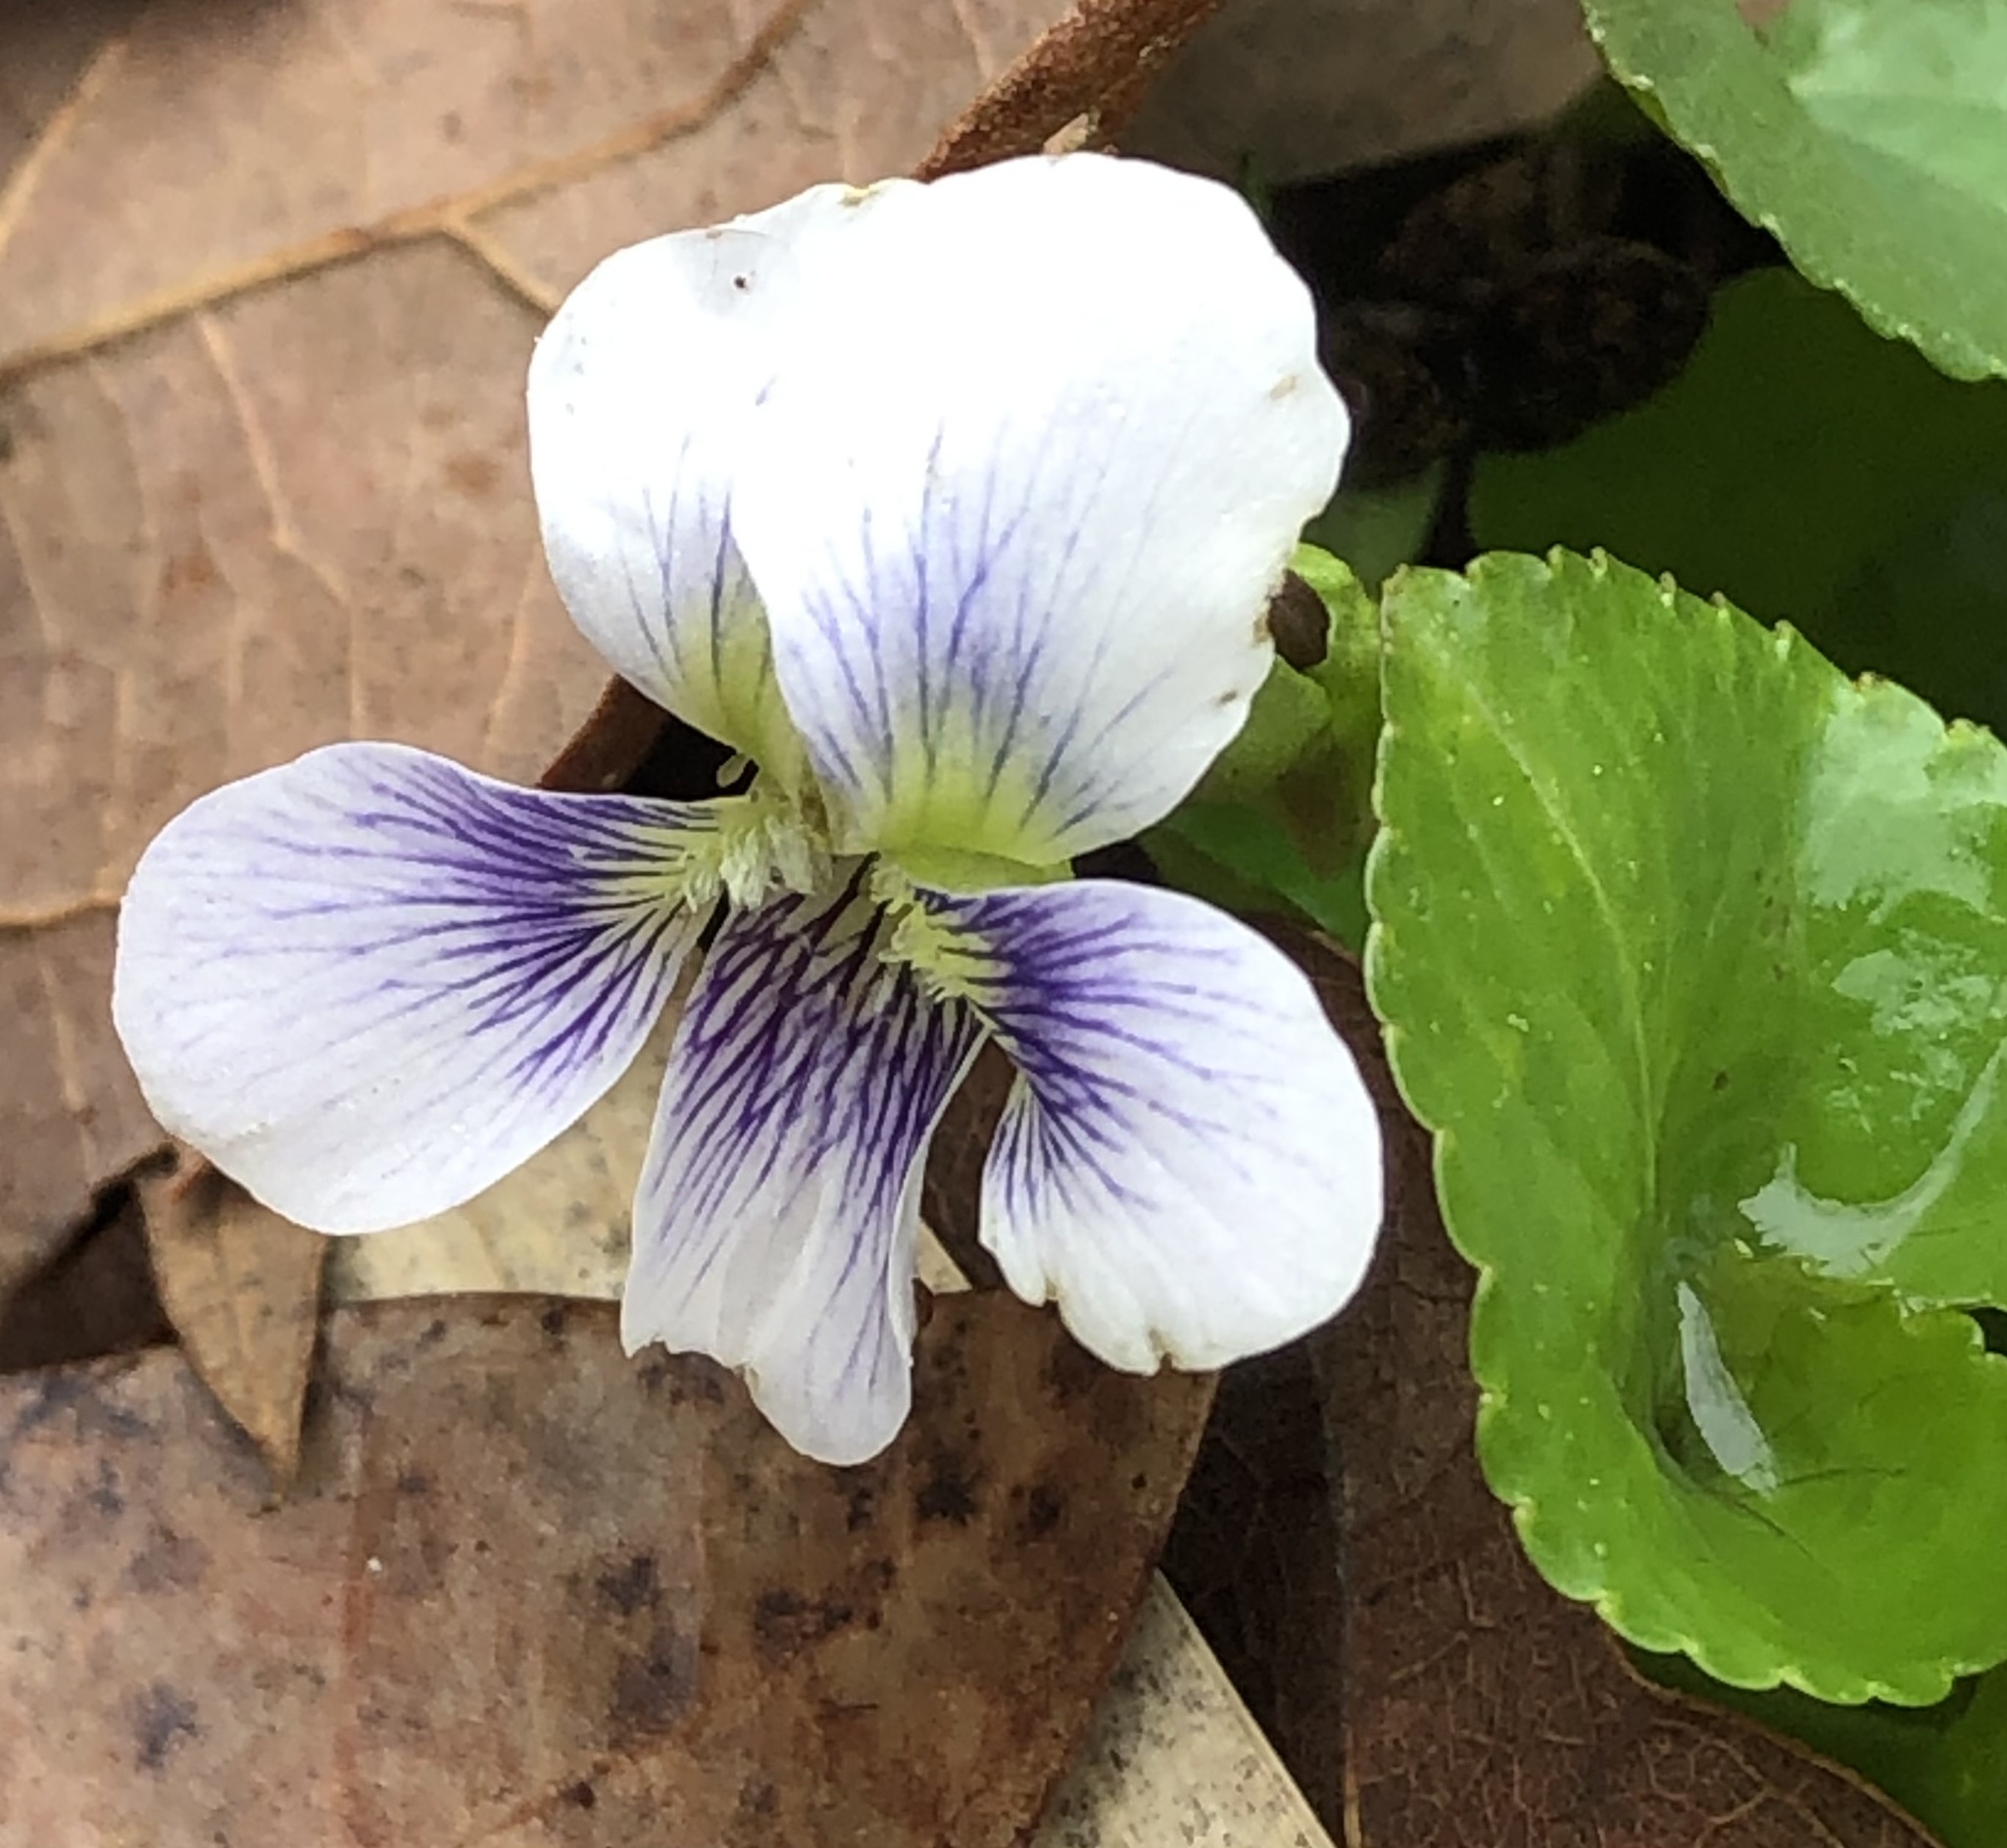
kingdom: Plantae
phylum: Tracheophyta
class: Magnoliopsida
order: Malpighiales
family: Violaceae
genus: Viola
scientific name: Viola sororia
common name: Dooryard violet
